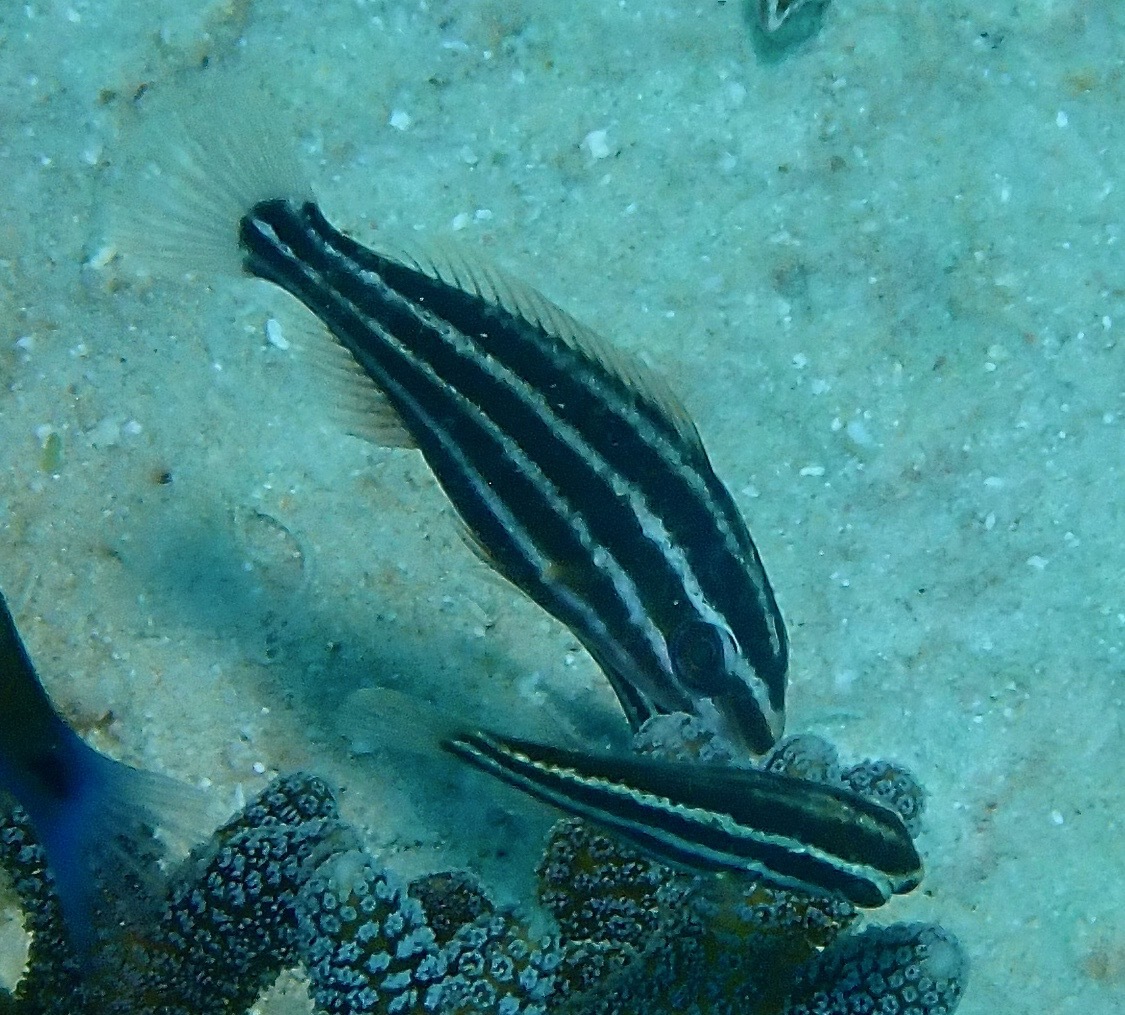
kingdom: Animalia
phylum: Chordata
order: Perciformes
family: Scaridae
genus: Chlorurus
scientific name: Chlorurus spilurus
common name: Bullethead parrotfish
